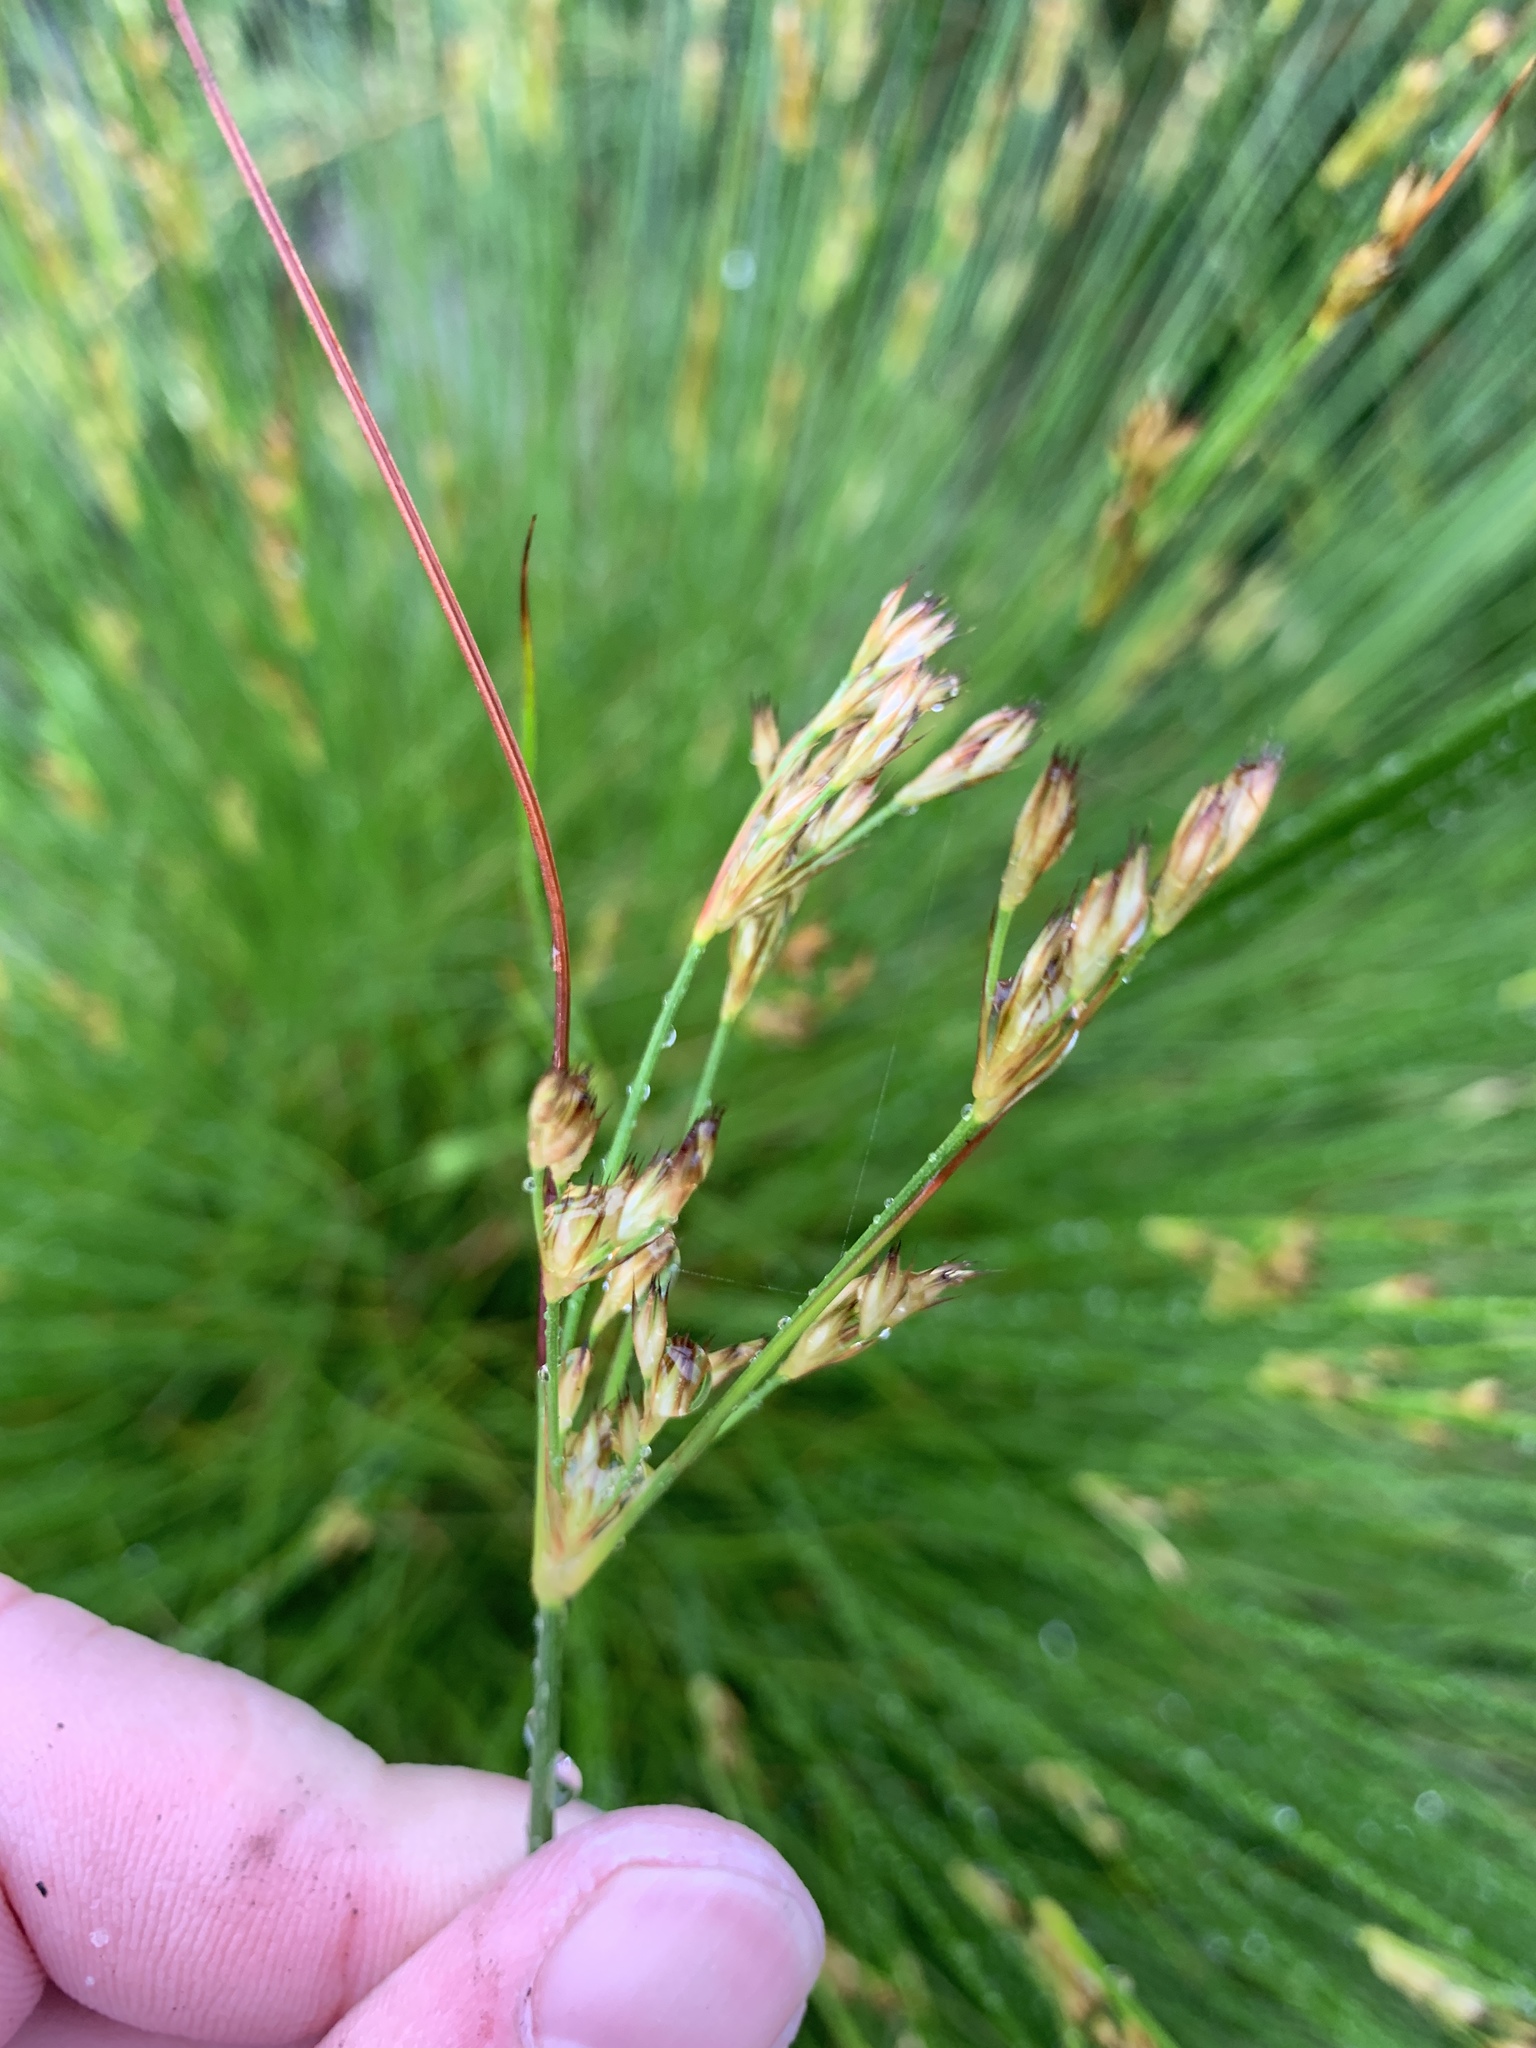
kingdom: Plantae
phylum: Tracheophyta
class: Liliopsida
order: Poales
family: Juncaceae
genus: Juncus
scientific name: Juncus capensis
